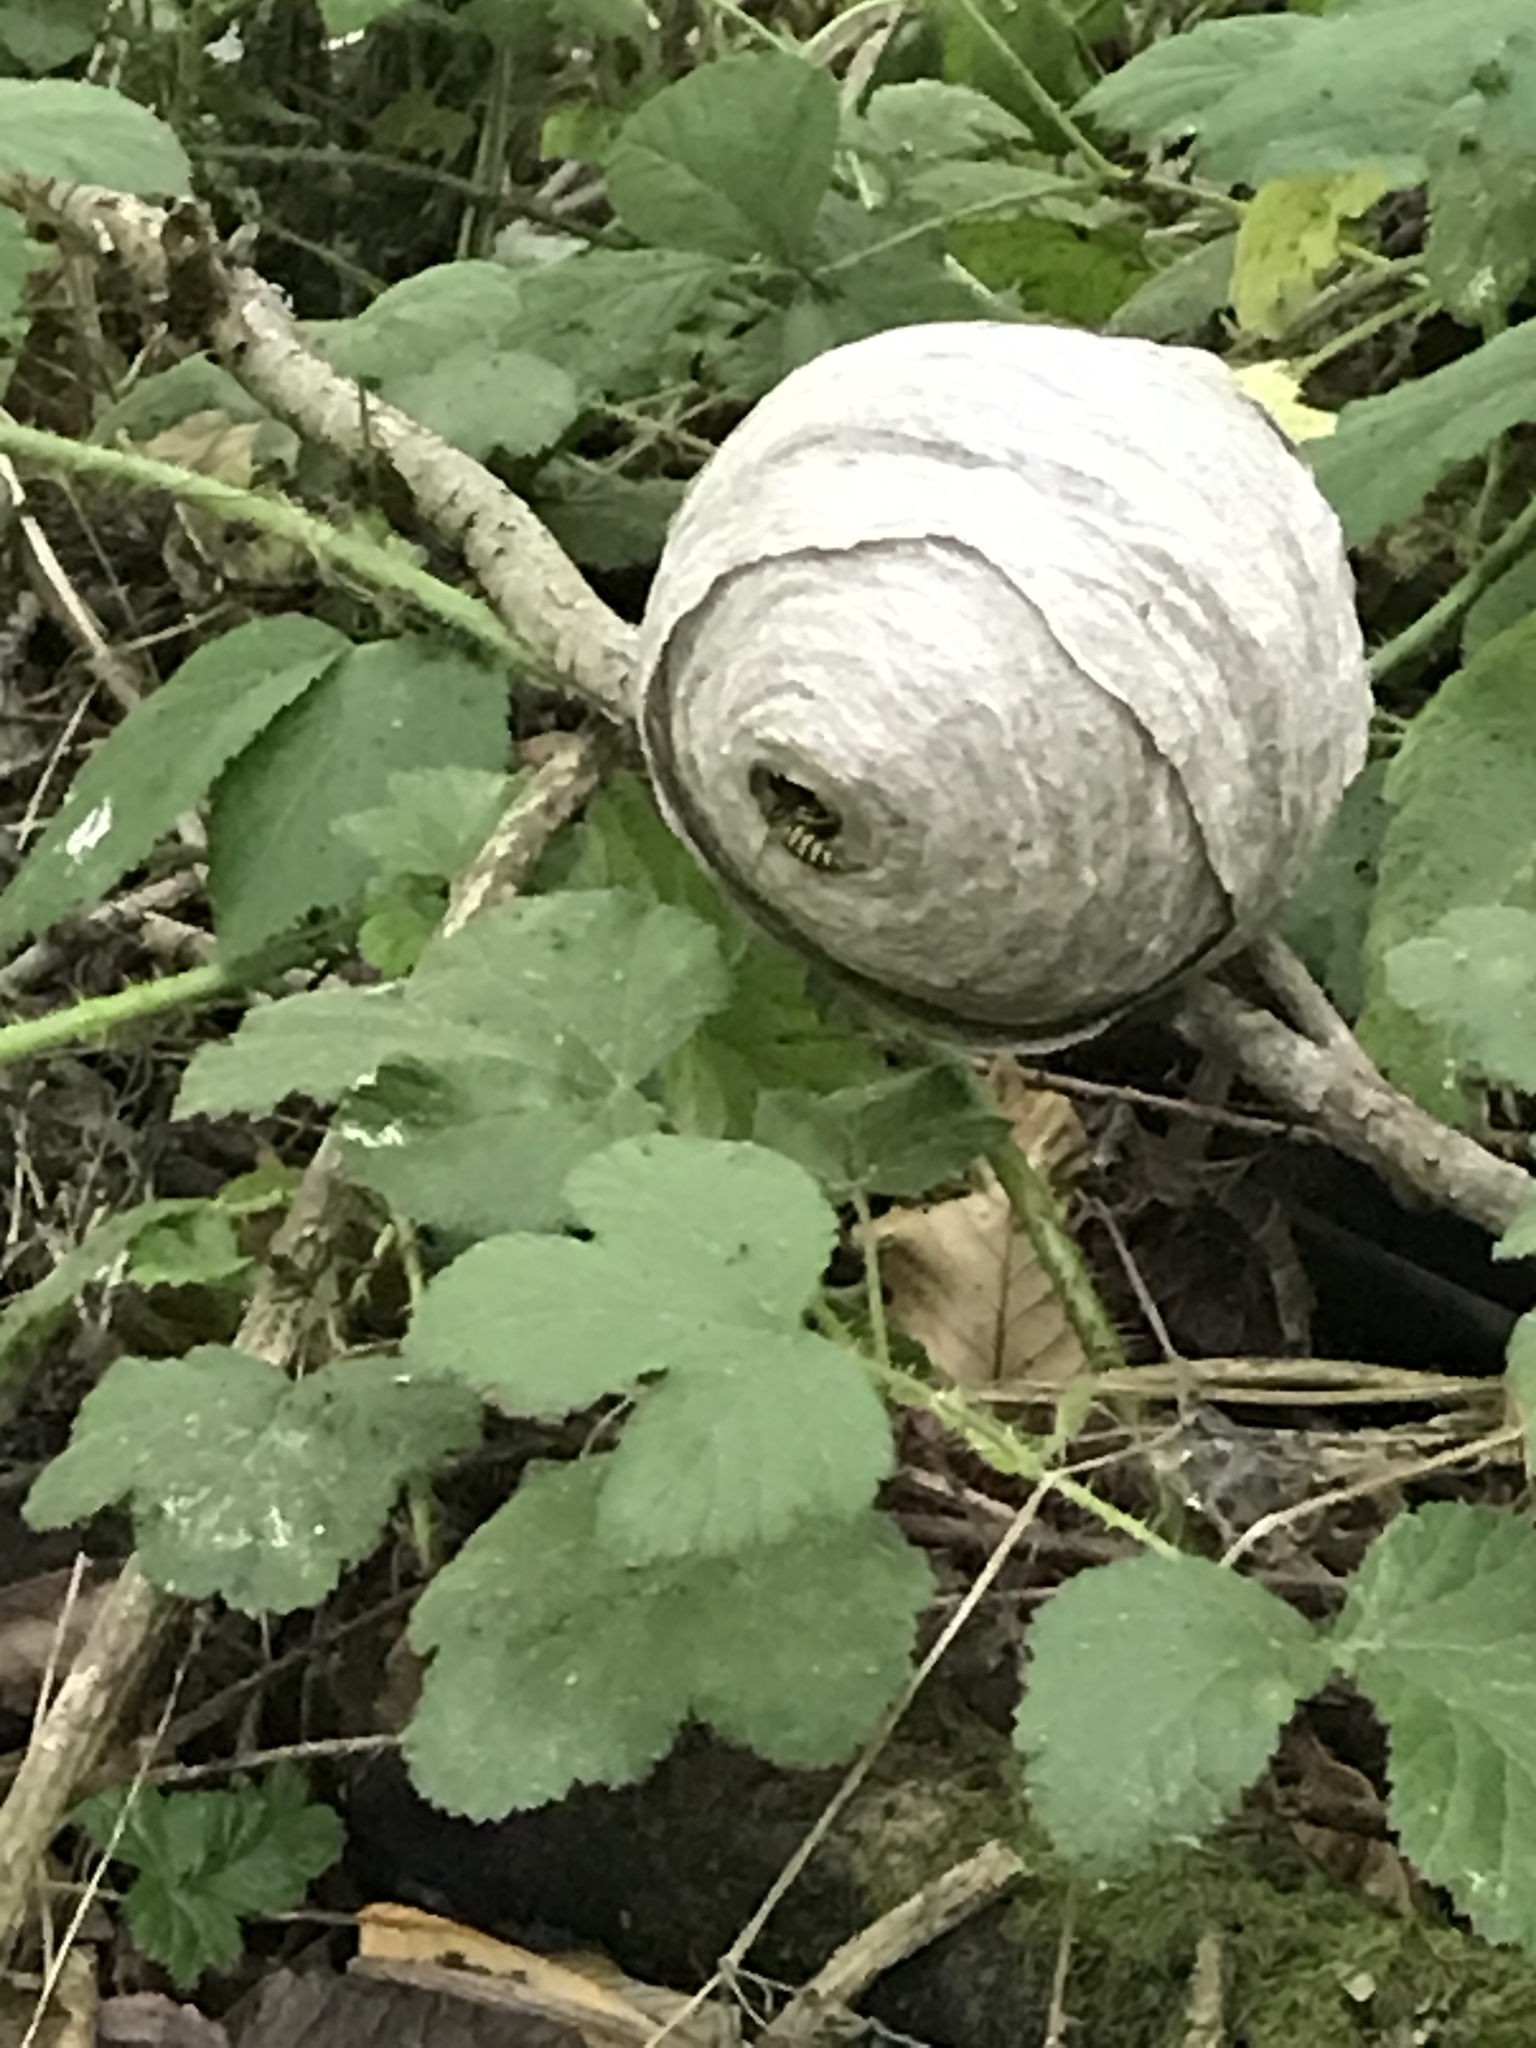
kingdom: Animalia
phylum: Arthropoda
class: Insecta
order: Hymenoptera
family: Vespidae
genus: Dolichovespula
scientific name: Dolichovespula arenaria
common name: Aerial yellowjacket
